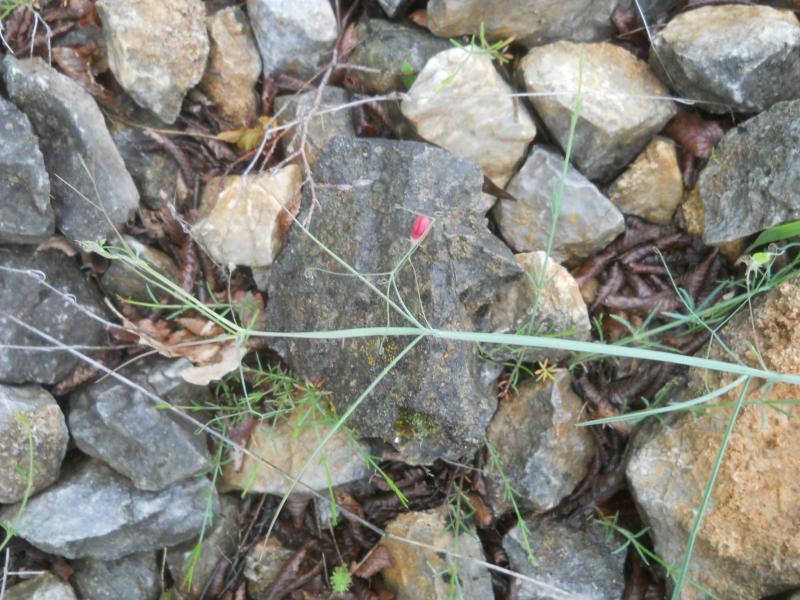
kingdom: Plantae
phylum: Tracheophyta
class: Magnoliopsida
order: Fabales
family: Fabaceae
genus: Lathyrus
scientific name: Lathyrus setifolius
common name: Brown vetchling
